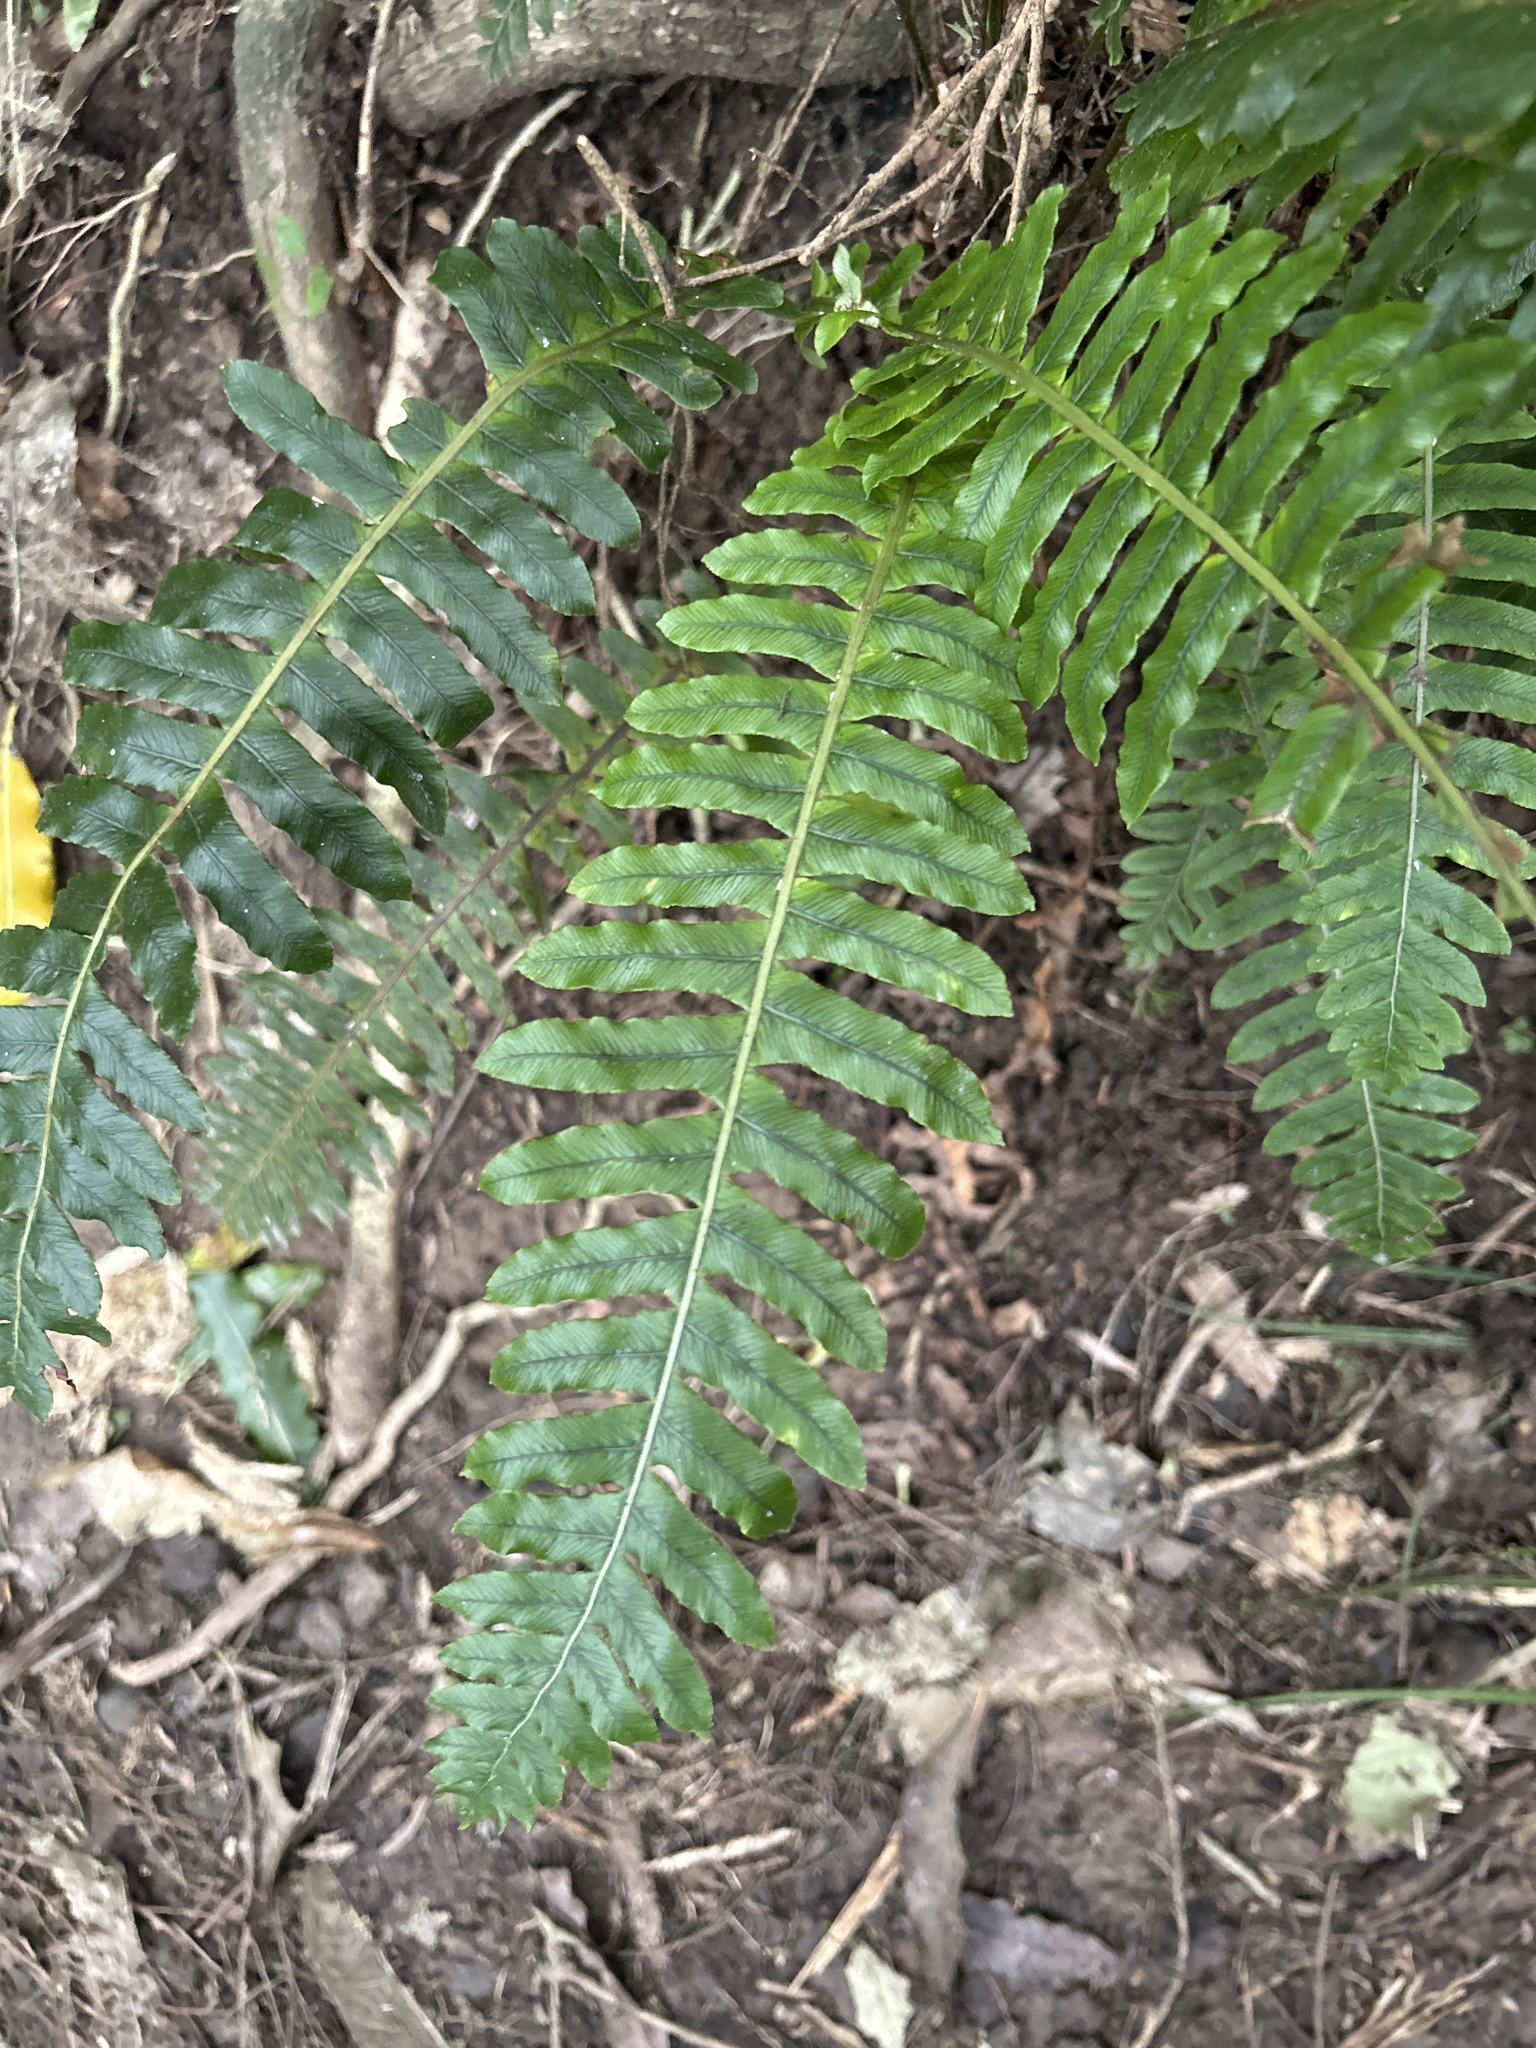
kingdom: Plantae
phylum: Tracheophyta
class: Polypodiopsida
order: Polypodiales
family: Blechnaceae
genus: Lomaria
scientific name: Lomaria discolor
